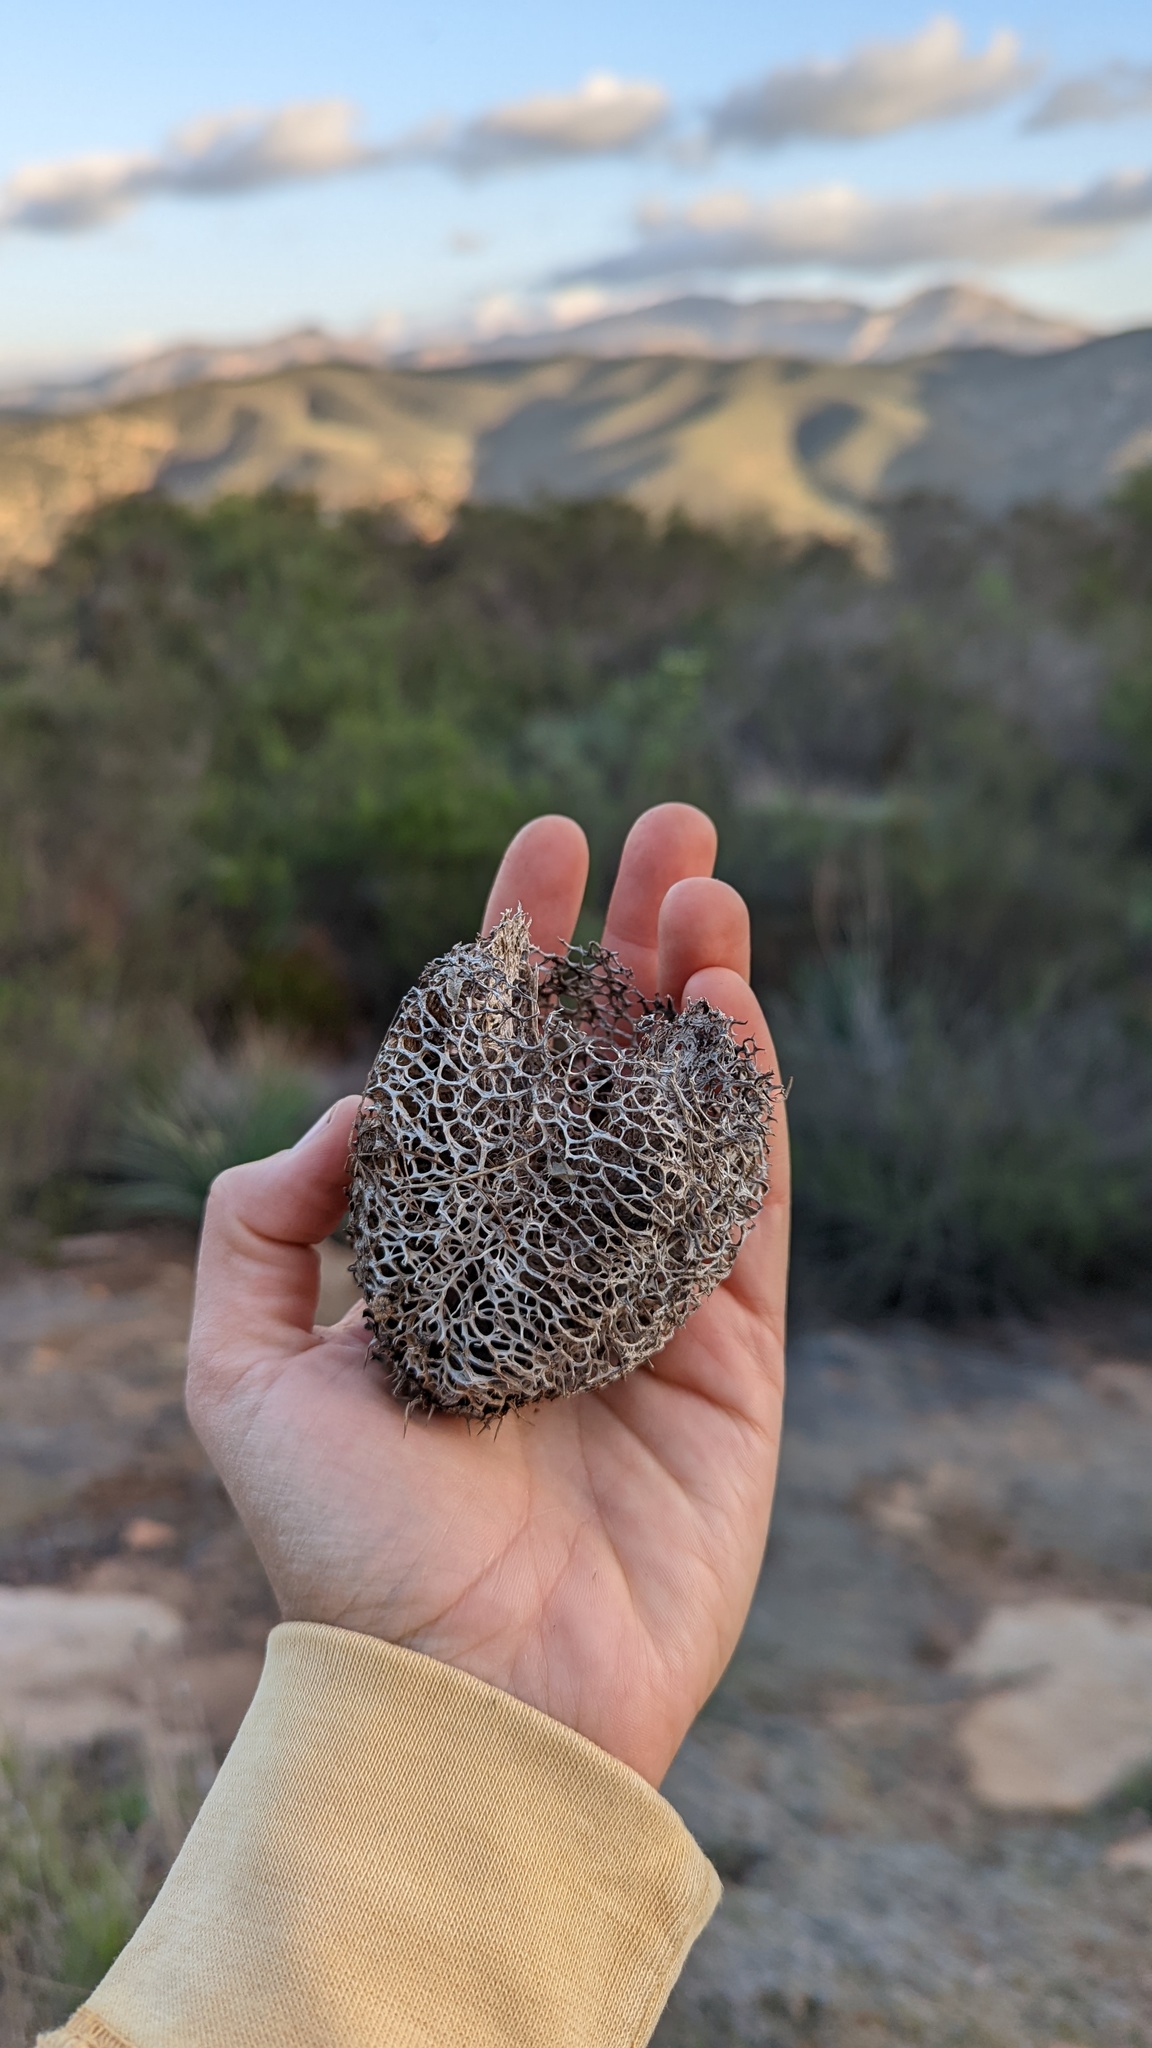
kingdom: Plantae
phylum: Tracheophyta
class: Magnoliopsida
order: Cucurbitales
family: Cucurbitaceae
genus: Marah
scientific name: Marah macrocarpa
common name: Cucamonga manroot
